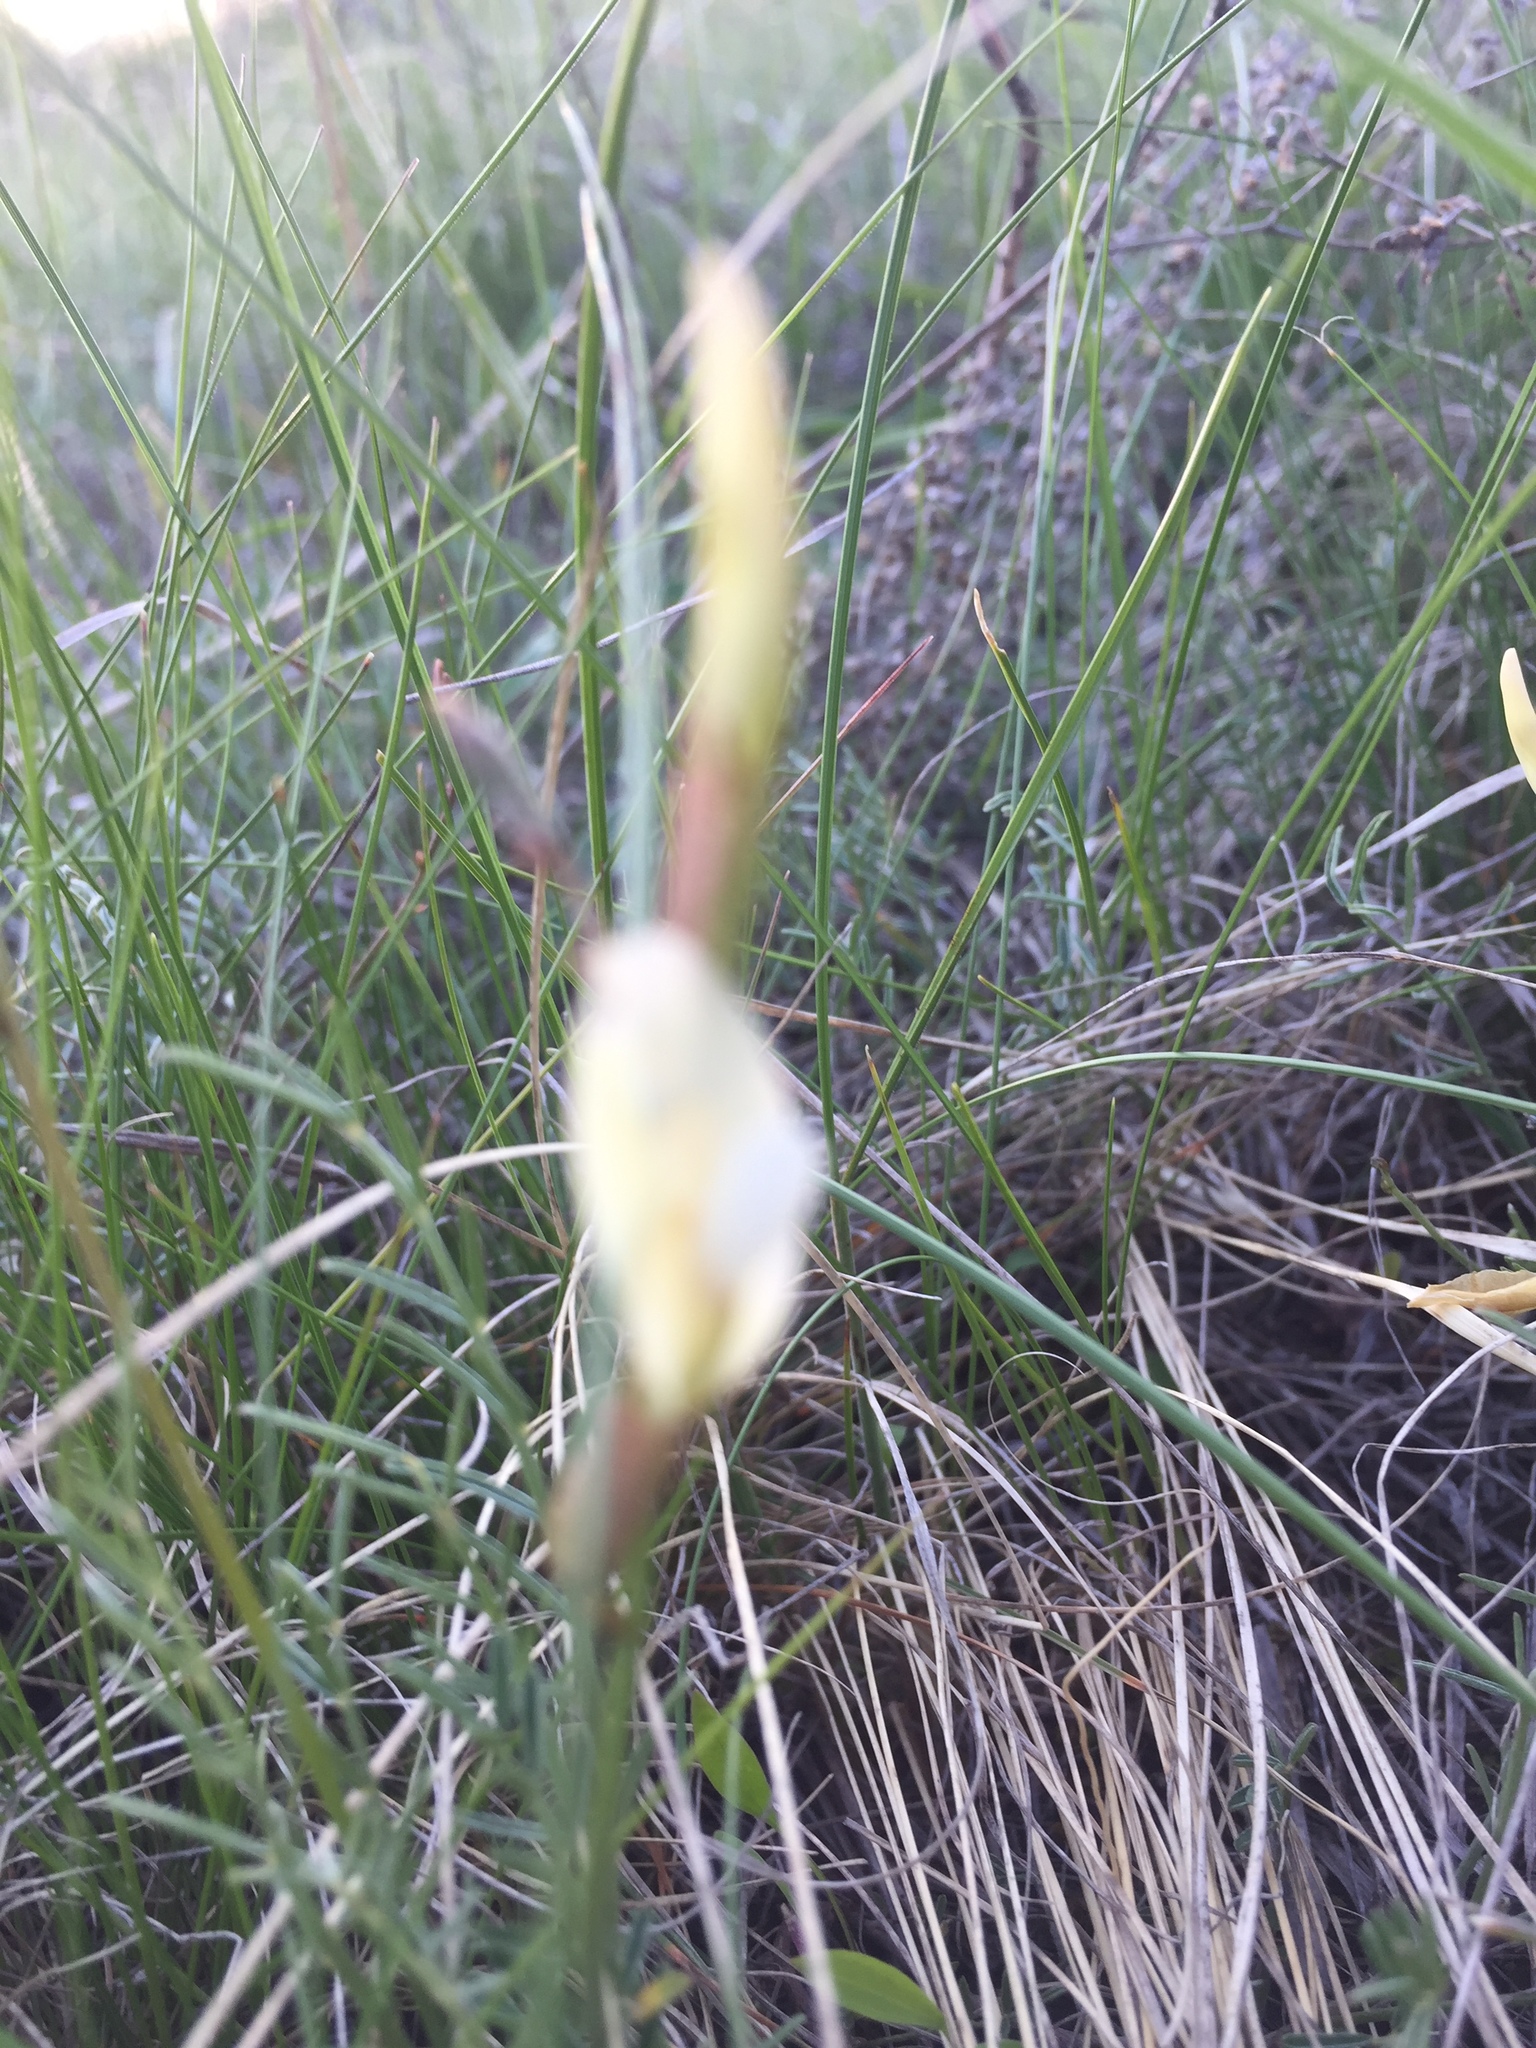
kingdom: Plantae
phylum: Tracheophyta
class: Magnoliopsida
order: Fabales
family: Fabaceae
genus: Astragalus
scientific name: Astragalus ucrainicus
